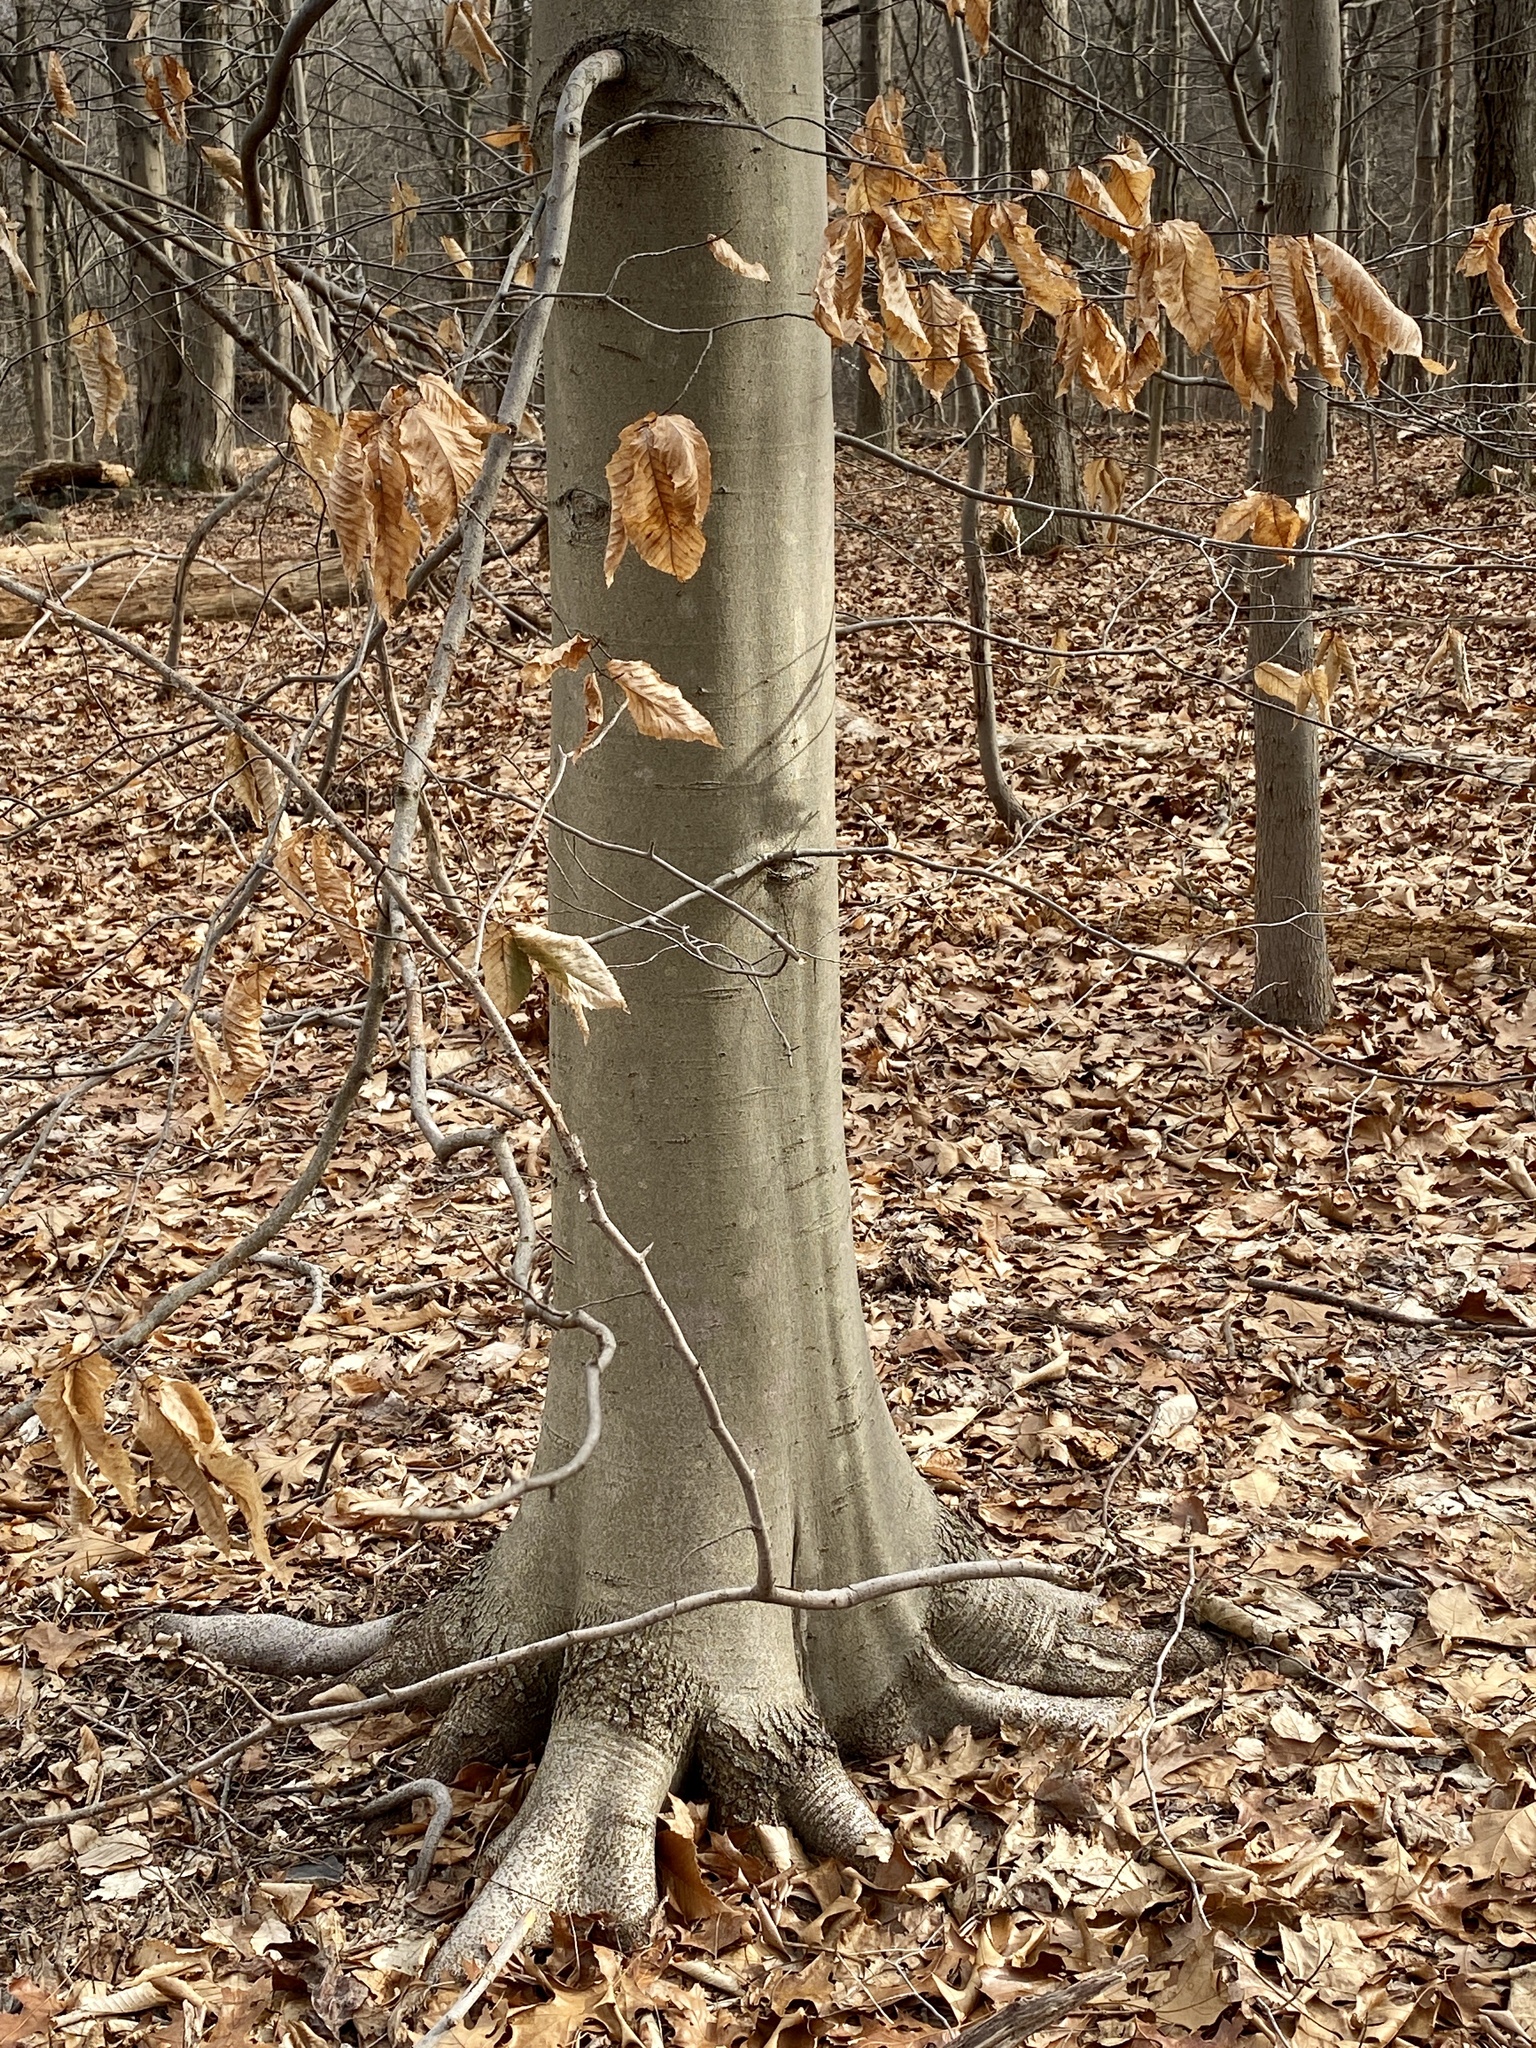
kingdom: Plantae
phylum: Tracheophyta
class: Magnoliopsida
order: Fagales
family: Fagaceae
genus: Fagus
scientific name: Fagus grandifolia
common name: American beech
